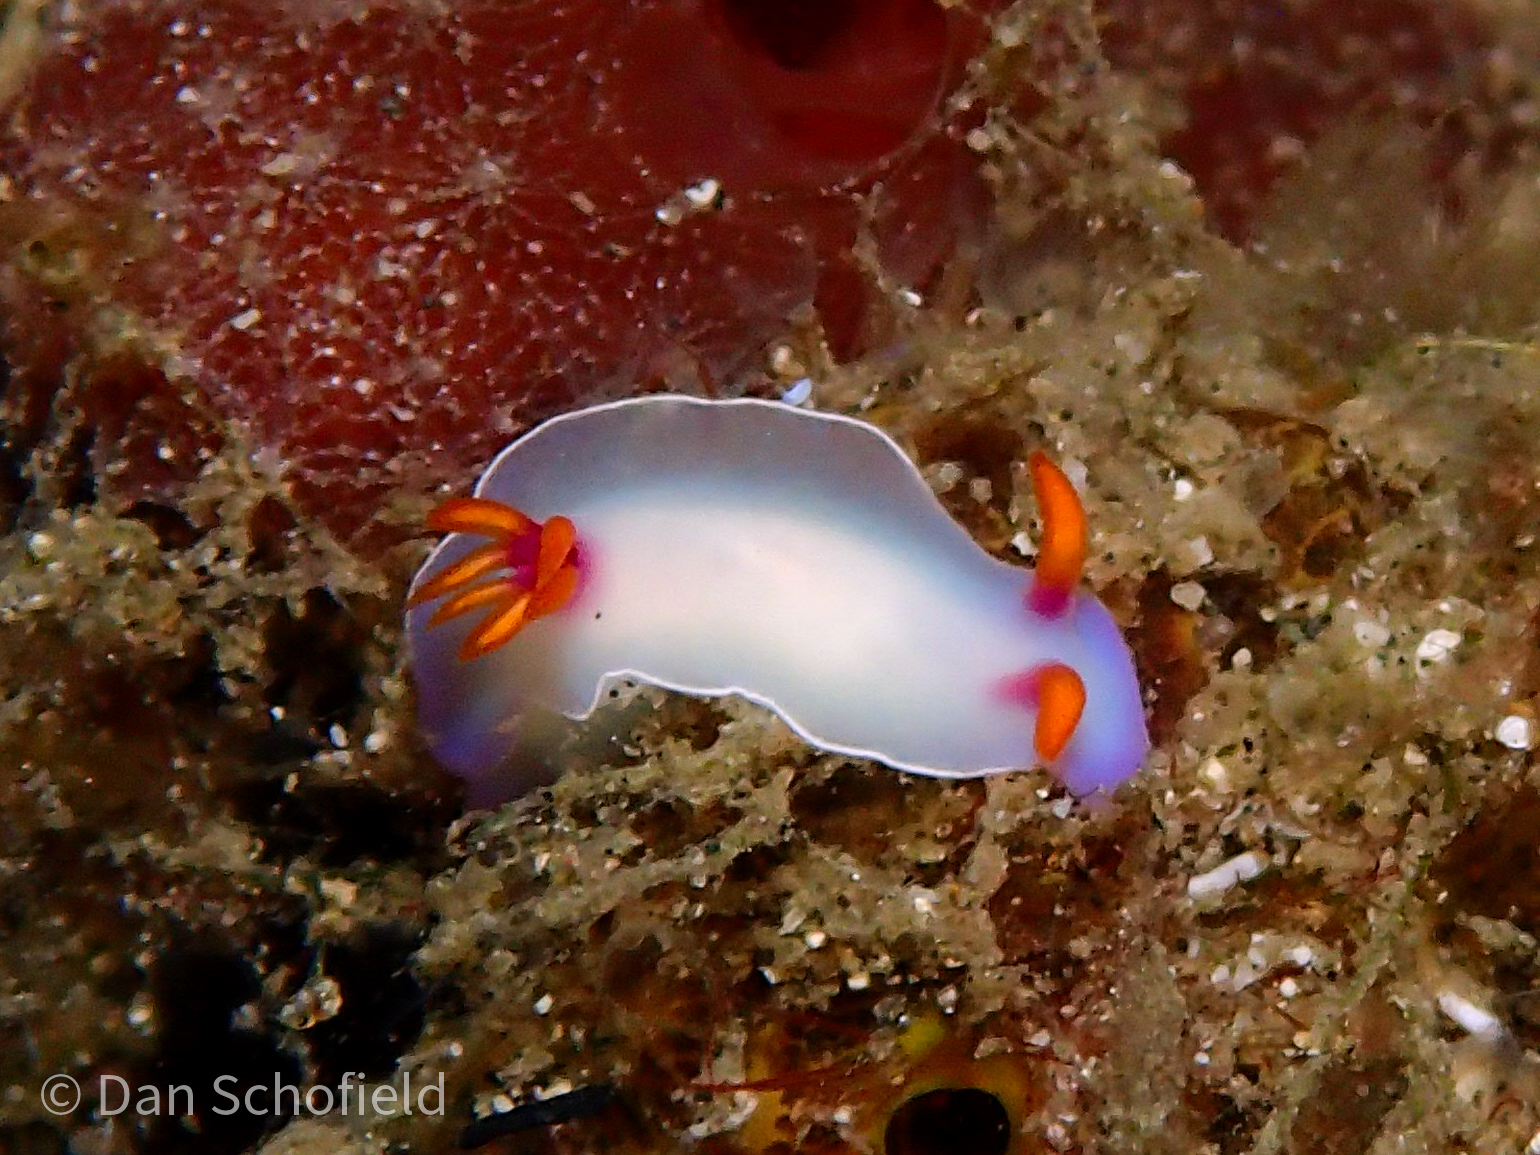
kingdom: Animalia
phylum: Mollusca
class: Gastropoda
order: Nudibranchia
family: Chromodorididae
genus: Hypselodoris
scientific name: Hypselodoris bullockii
